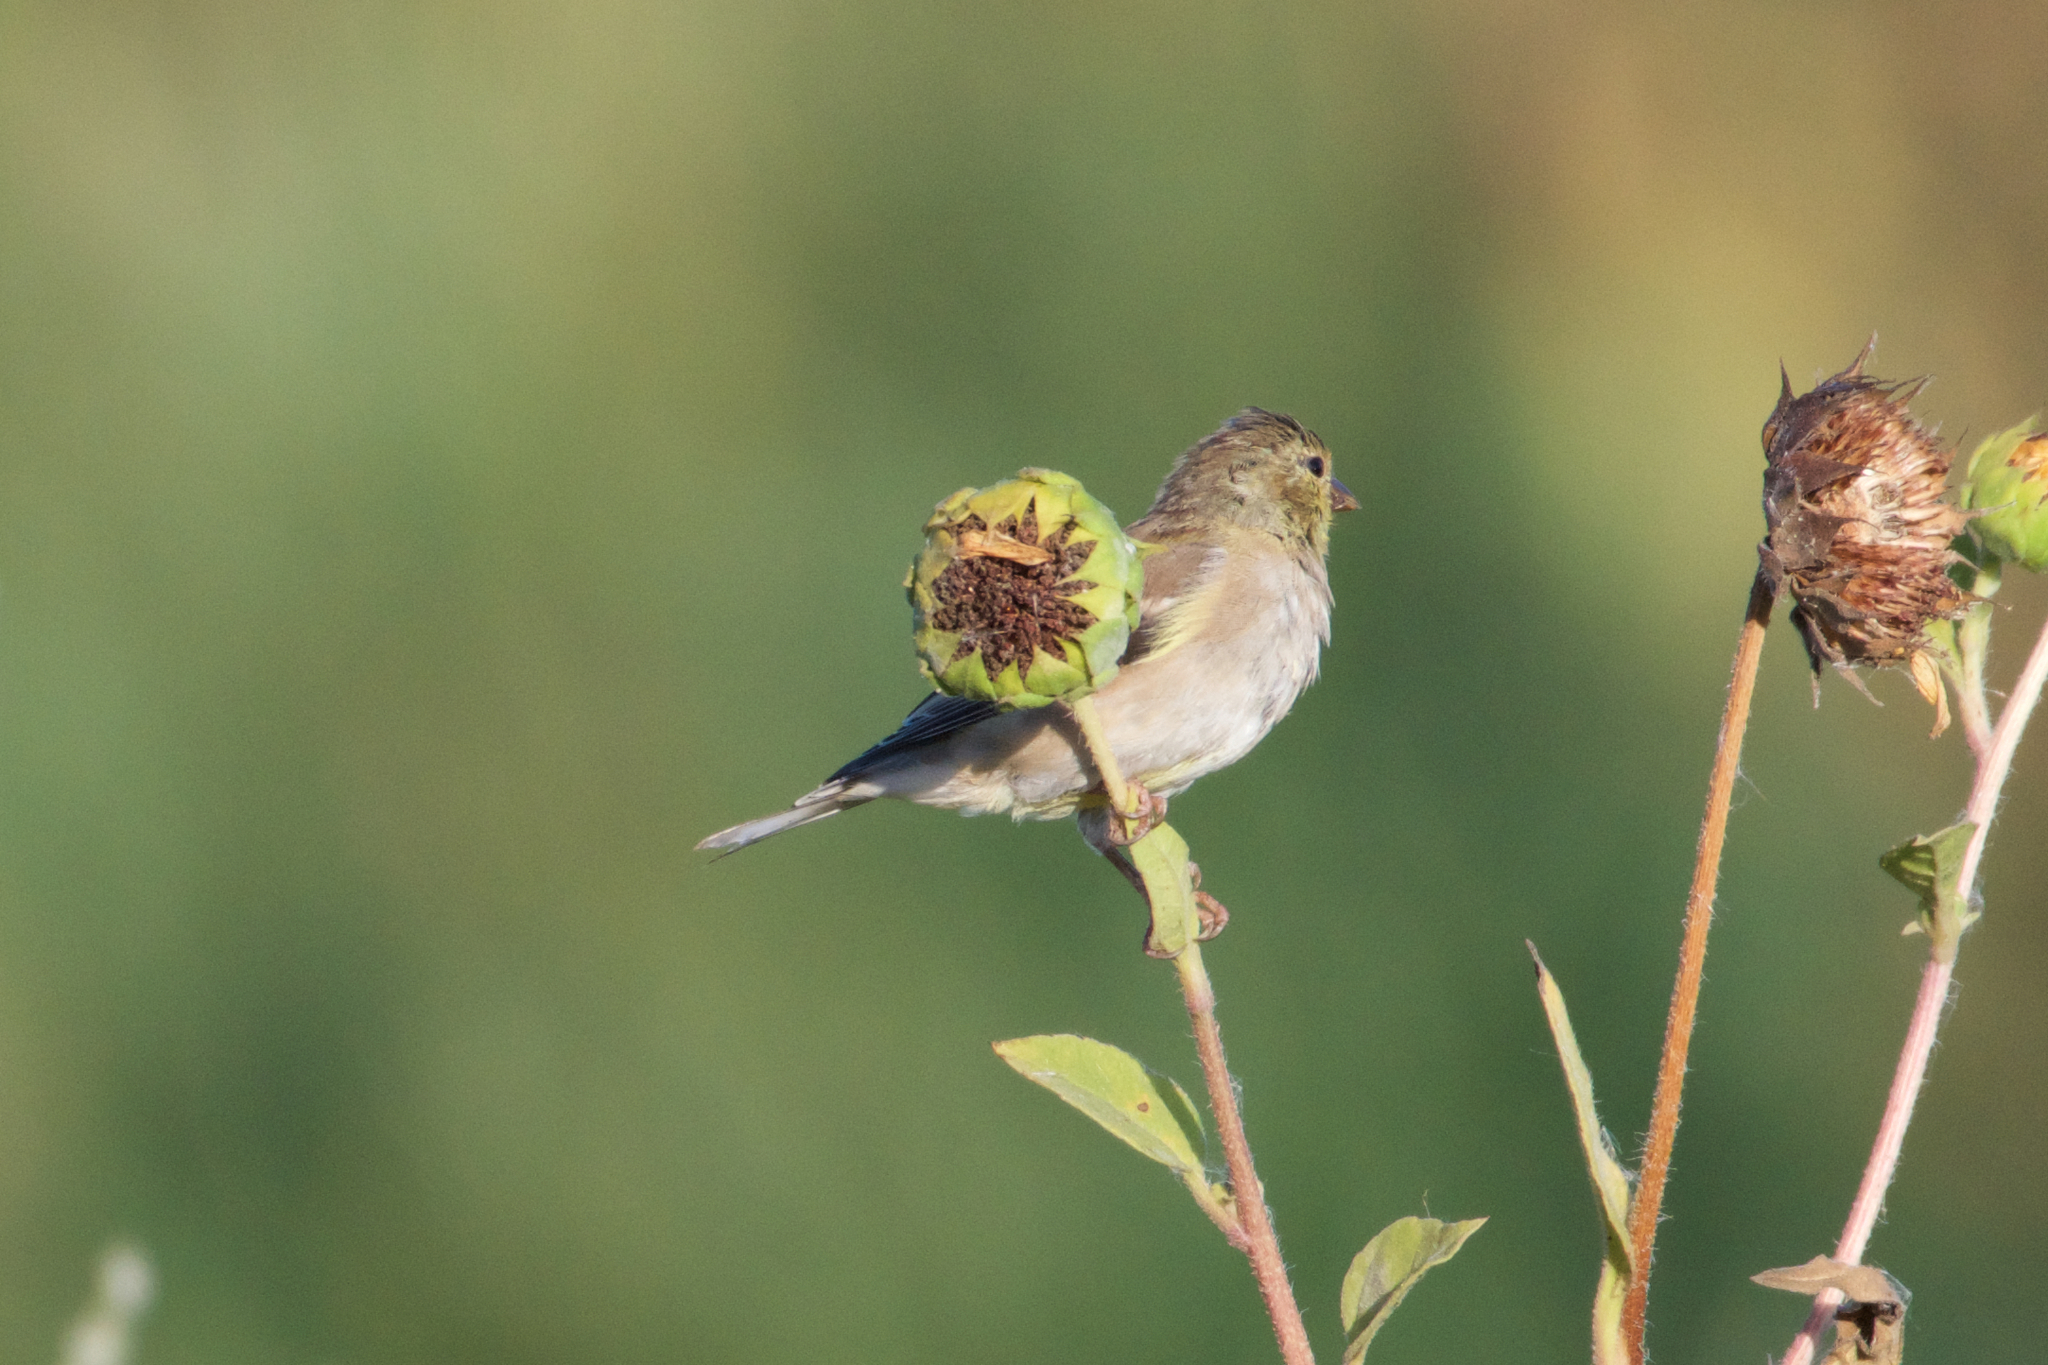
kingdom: Animalia
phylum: Chordata
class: Aves
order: Passeriformes
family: Fringillidae
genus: Spinus
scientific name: Spinus tristis
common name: American goldfinch
